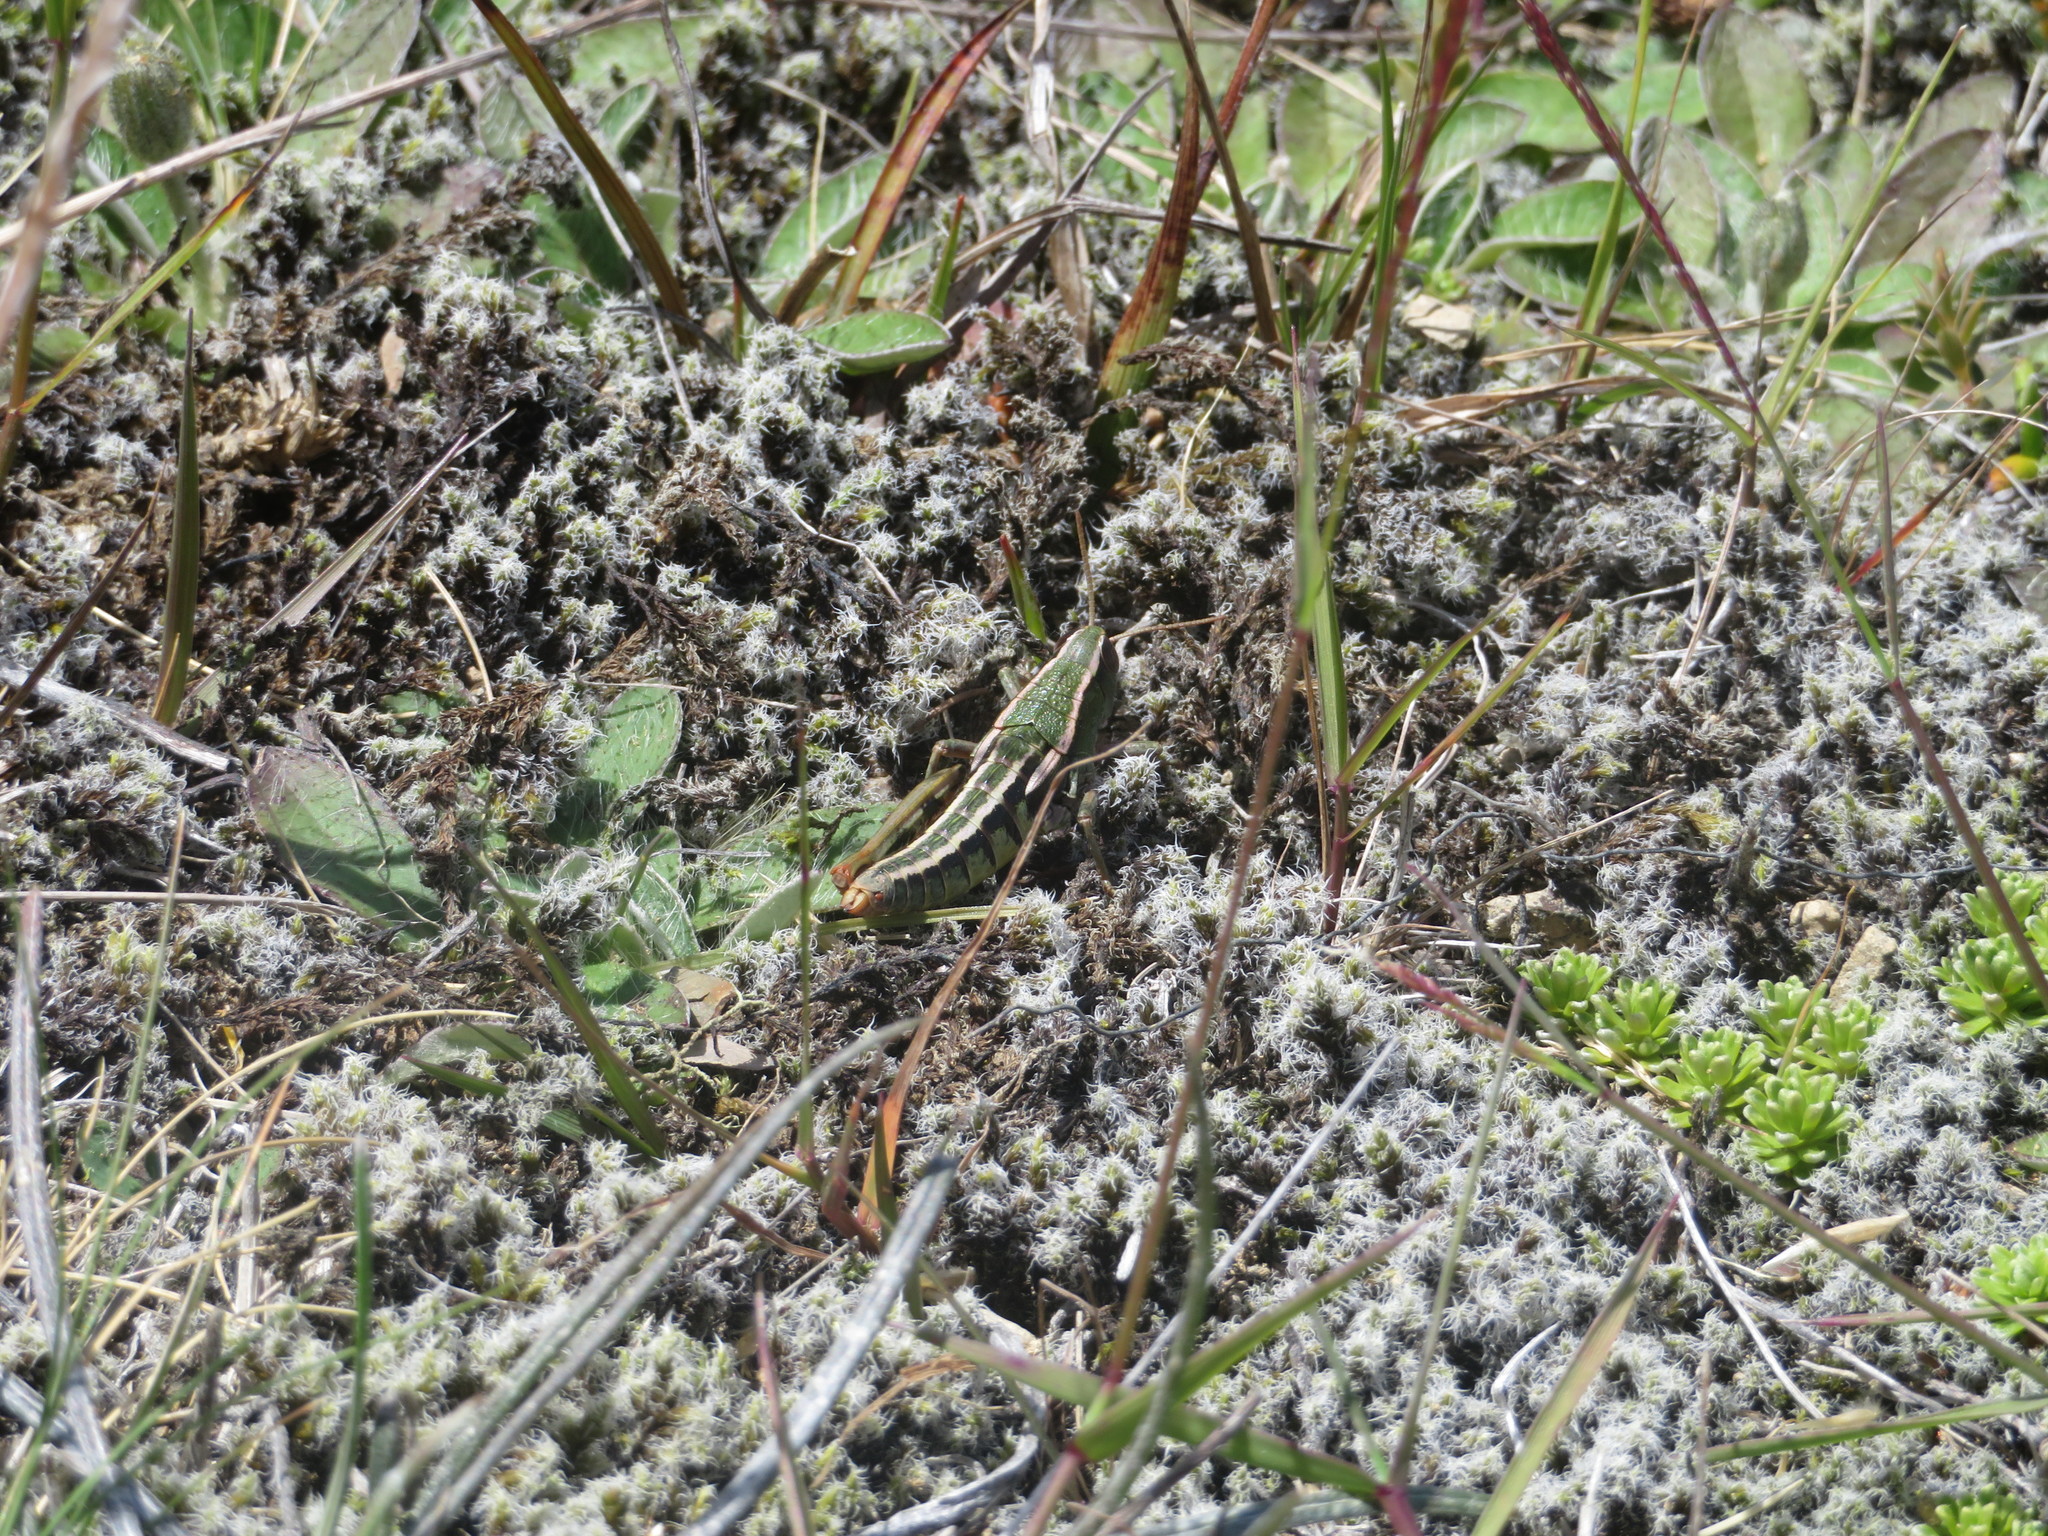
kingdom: Animalia
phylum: Arthropoda
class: Insecta
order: Orthoptera
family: Acrididae
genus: Sigaus
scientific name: Sigaus
